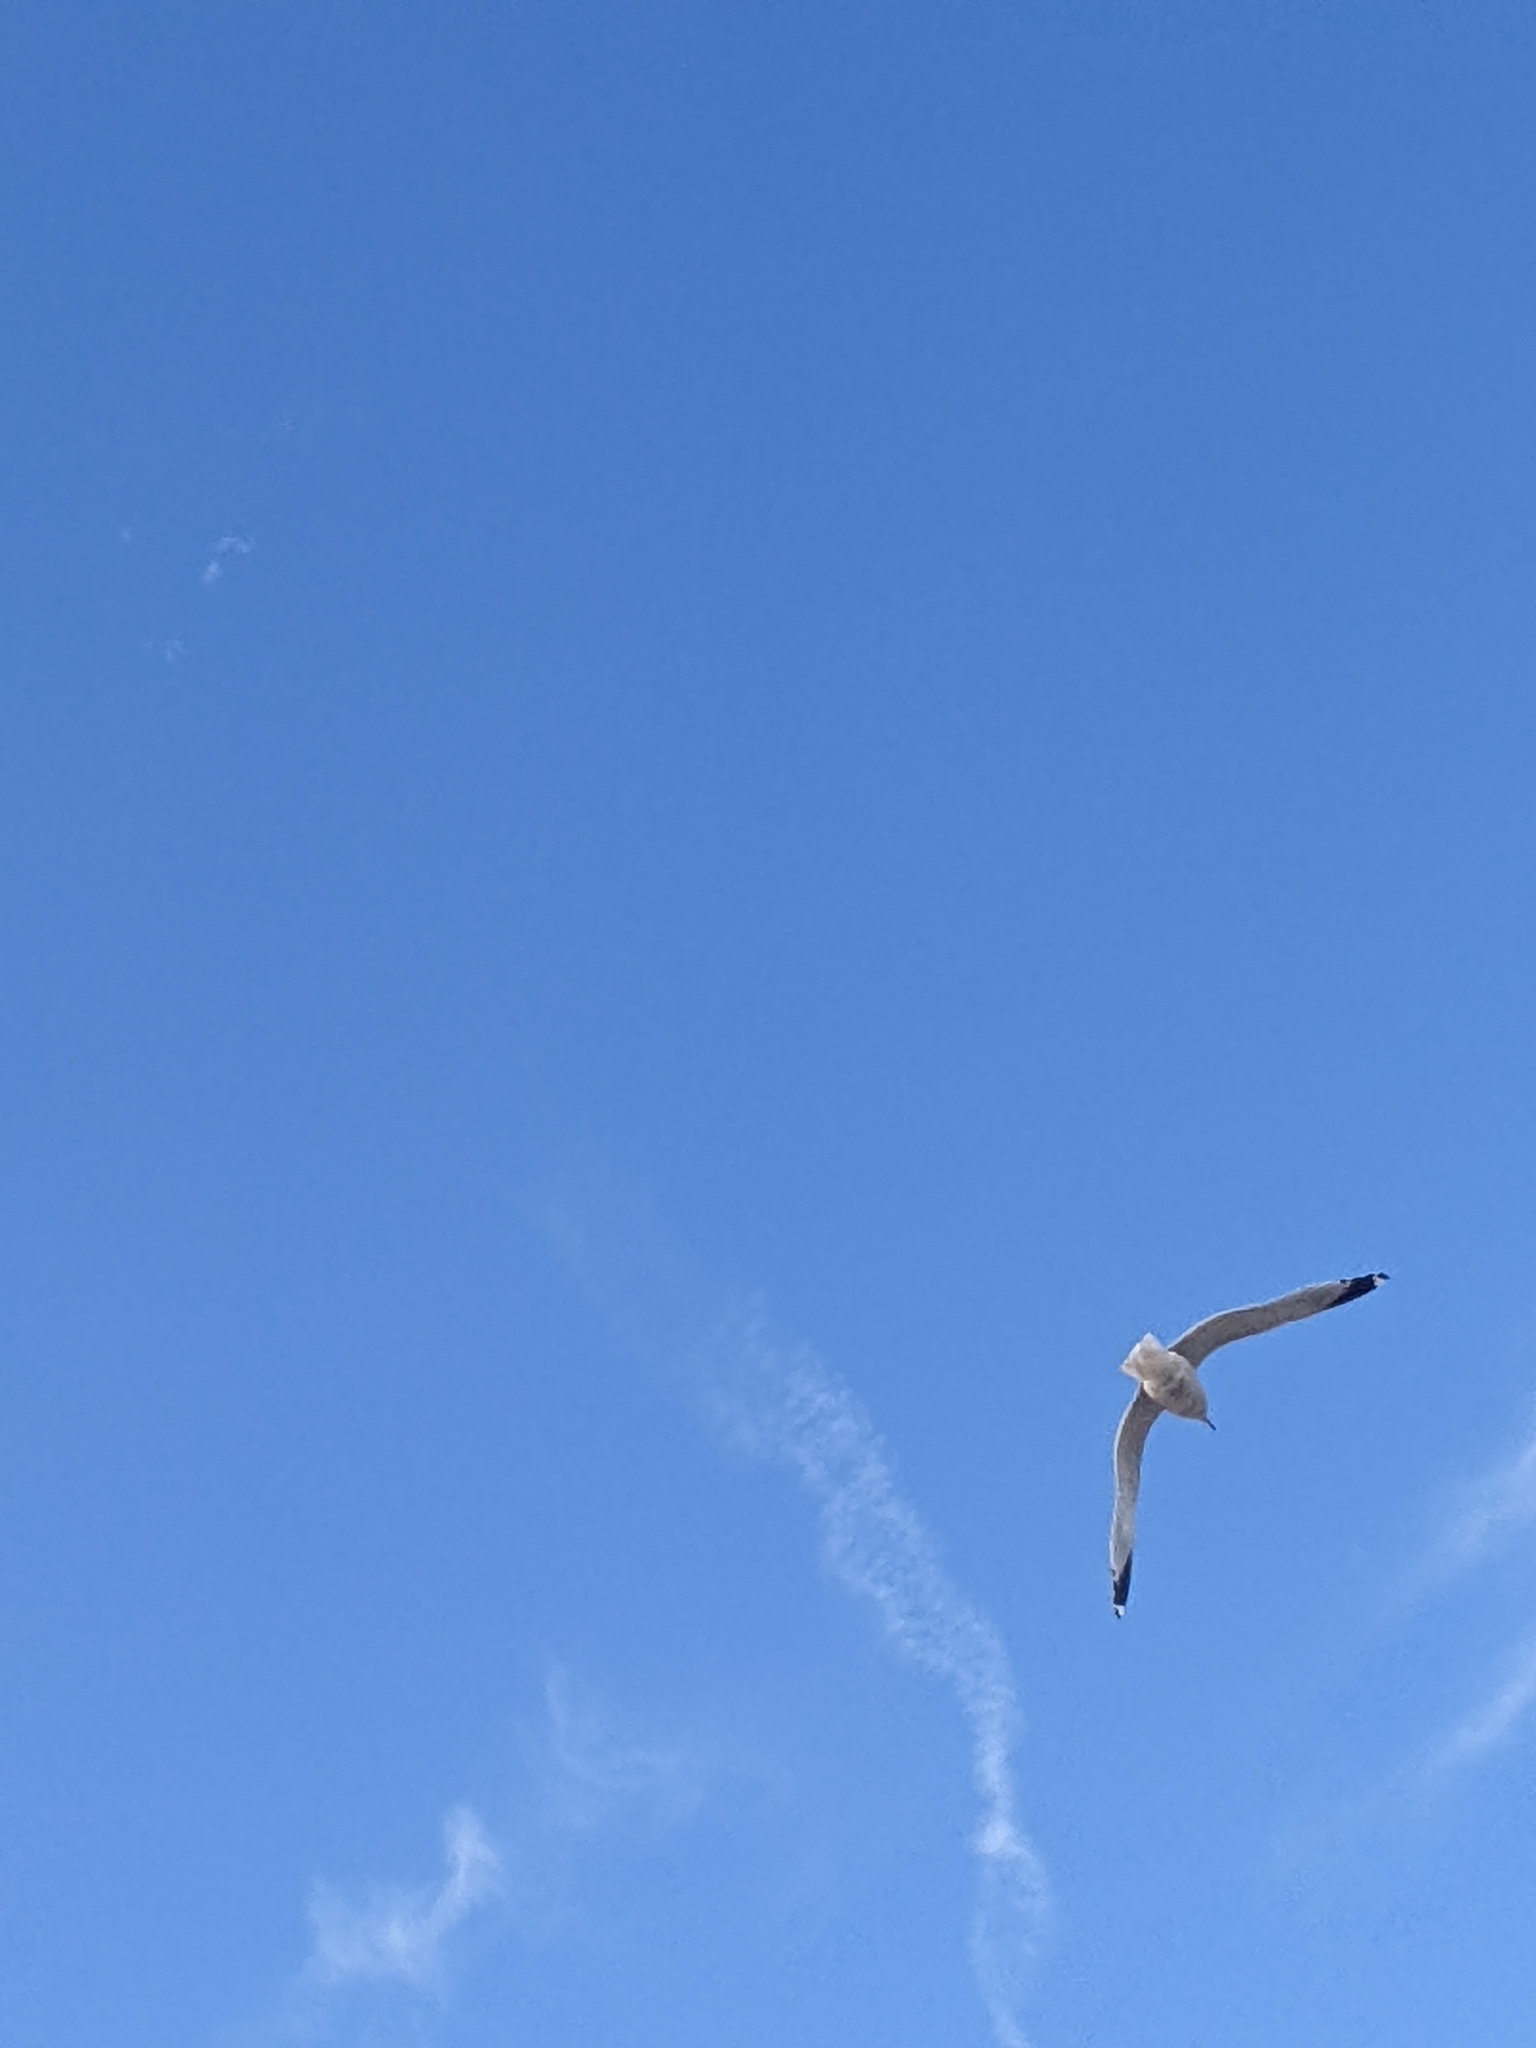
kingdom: Animalia
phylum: Chordata
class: Aves
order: Charadriiformes
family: Laridae
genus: Larus
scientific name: Larus delawarensis
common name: Ring-billed gull
